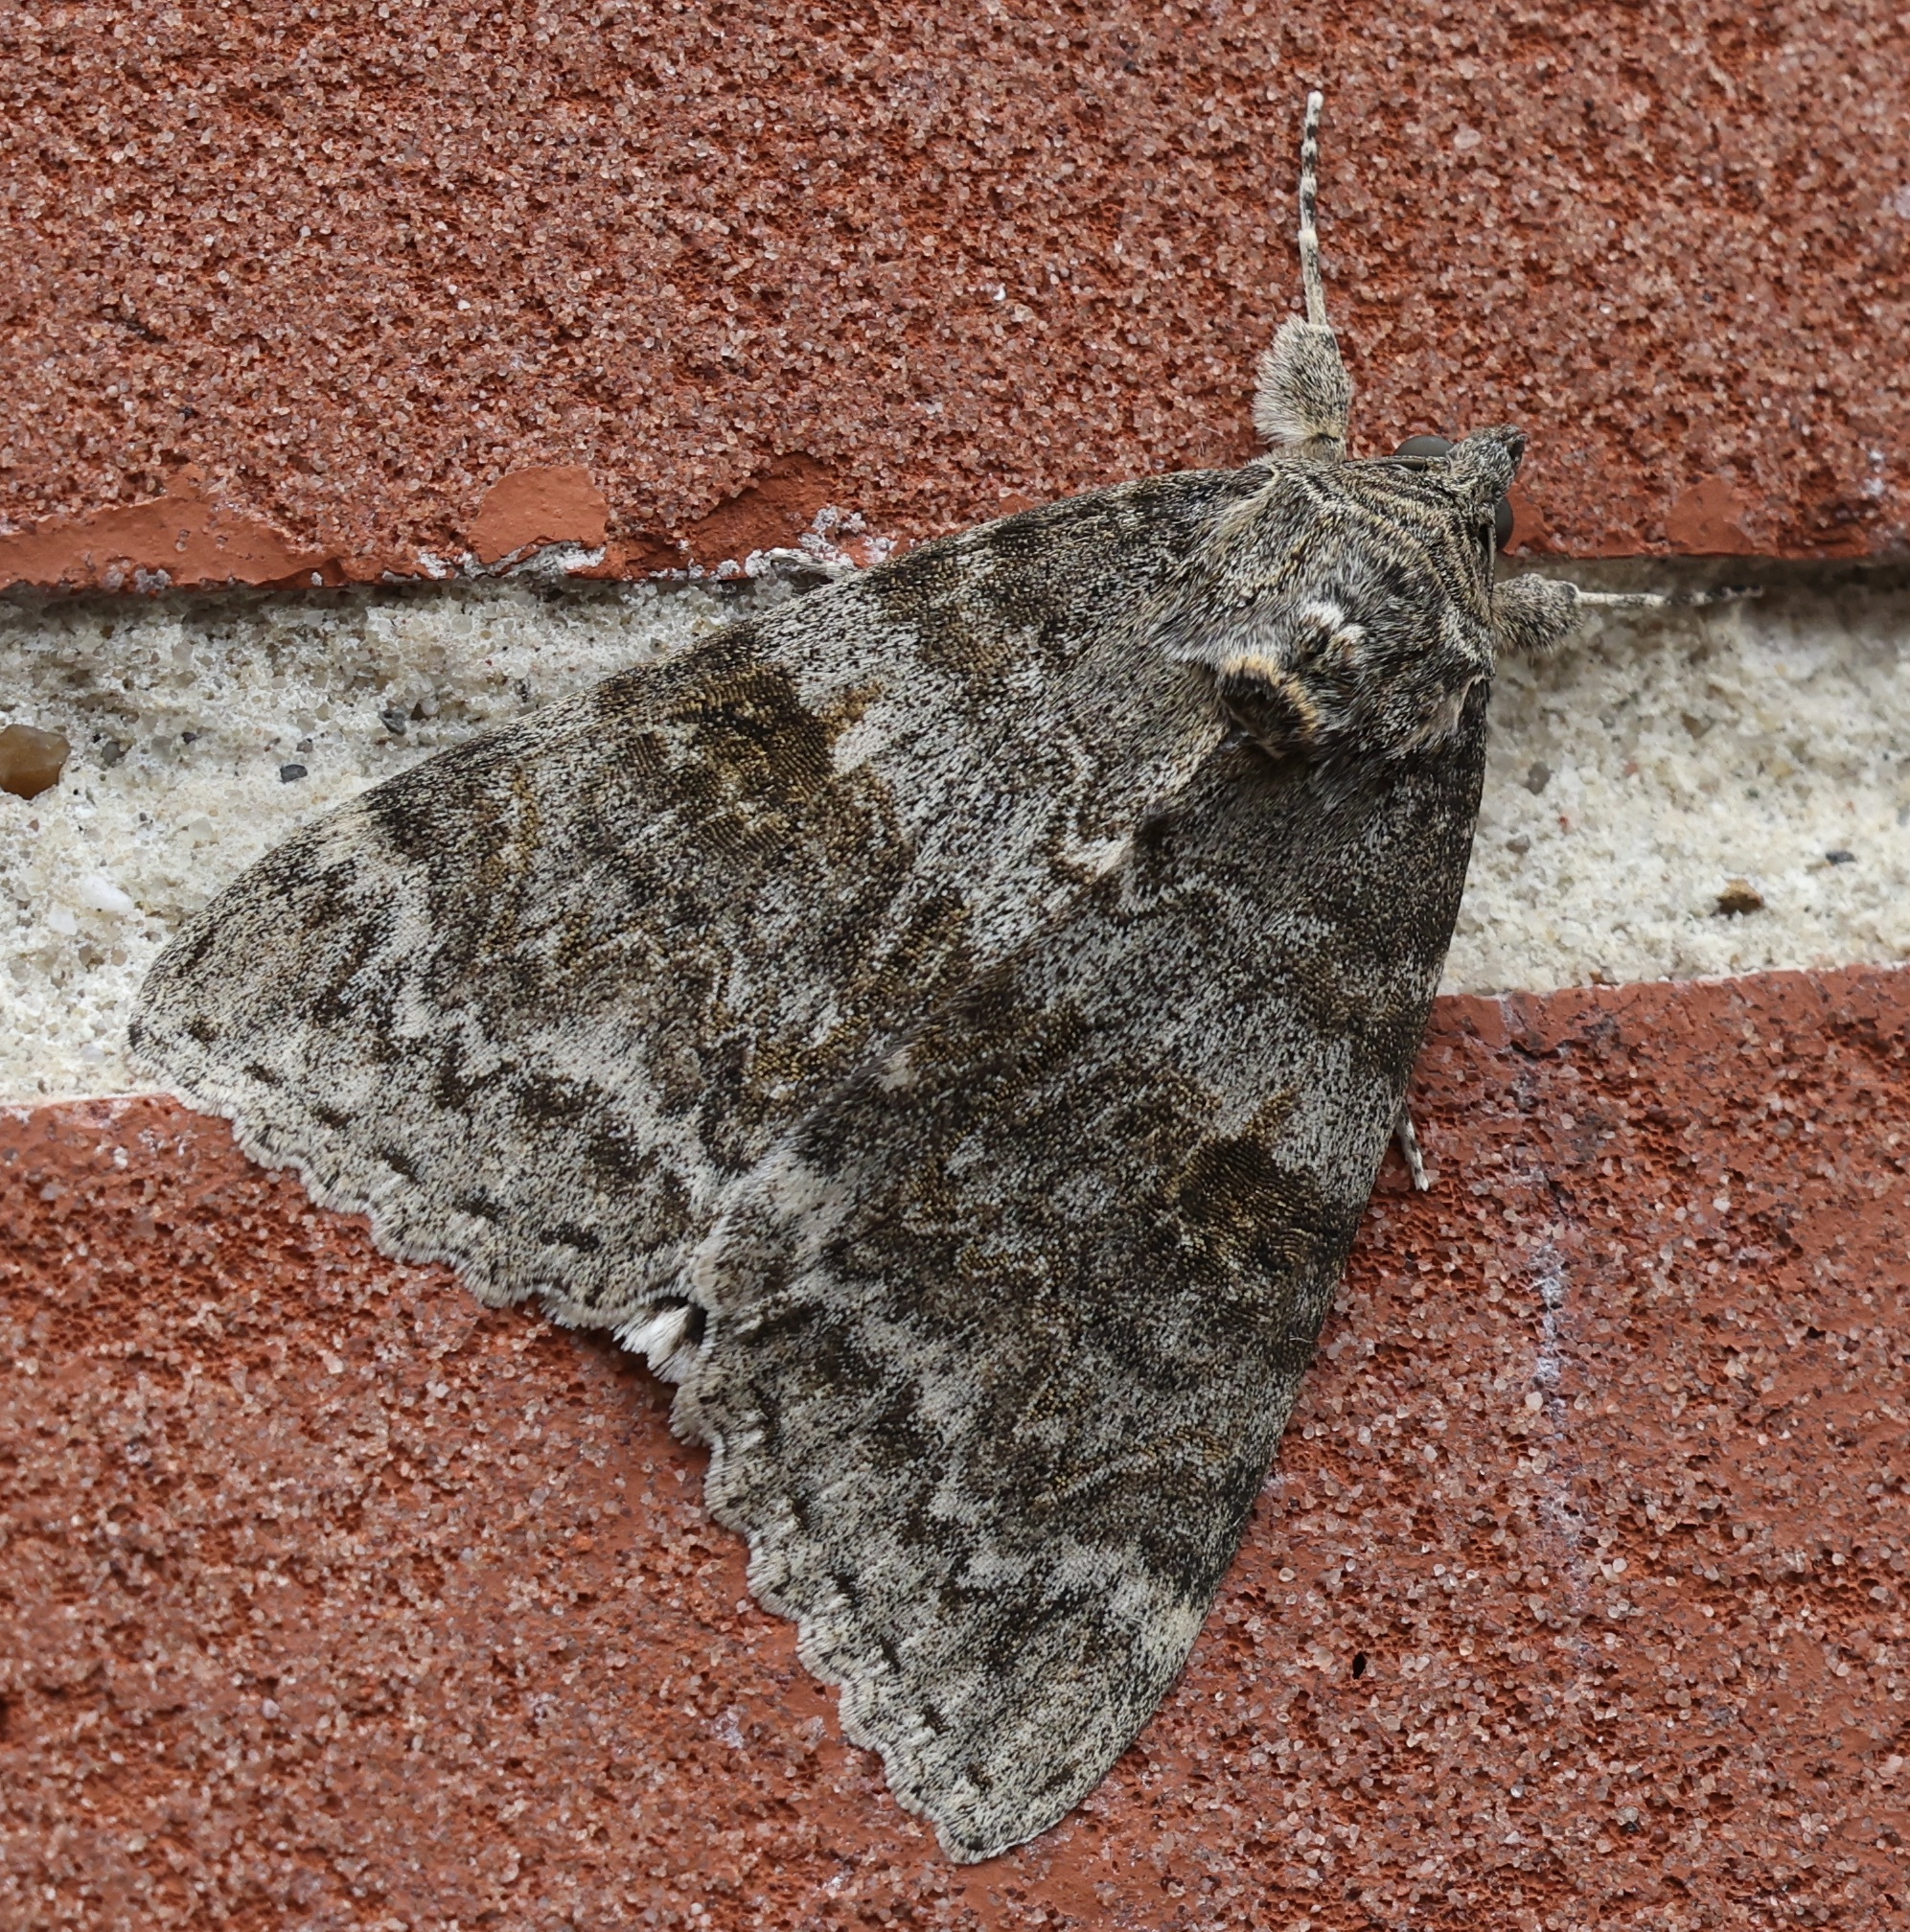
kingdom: Animalia
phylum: Arthropoda
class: Insecta
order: Lepidoptera
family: Erebidae
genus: Catocala
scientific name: Catocala nupta
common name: Red underwing
